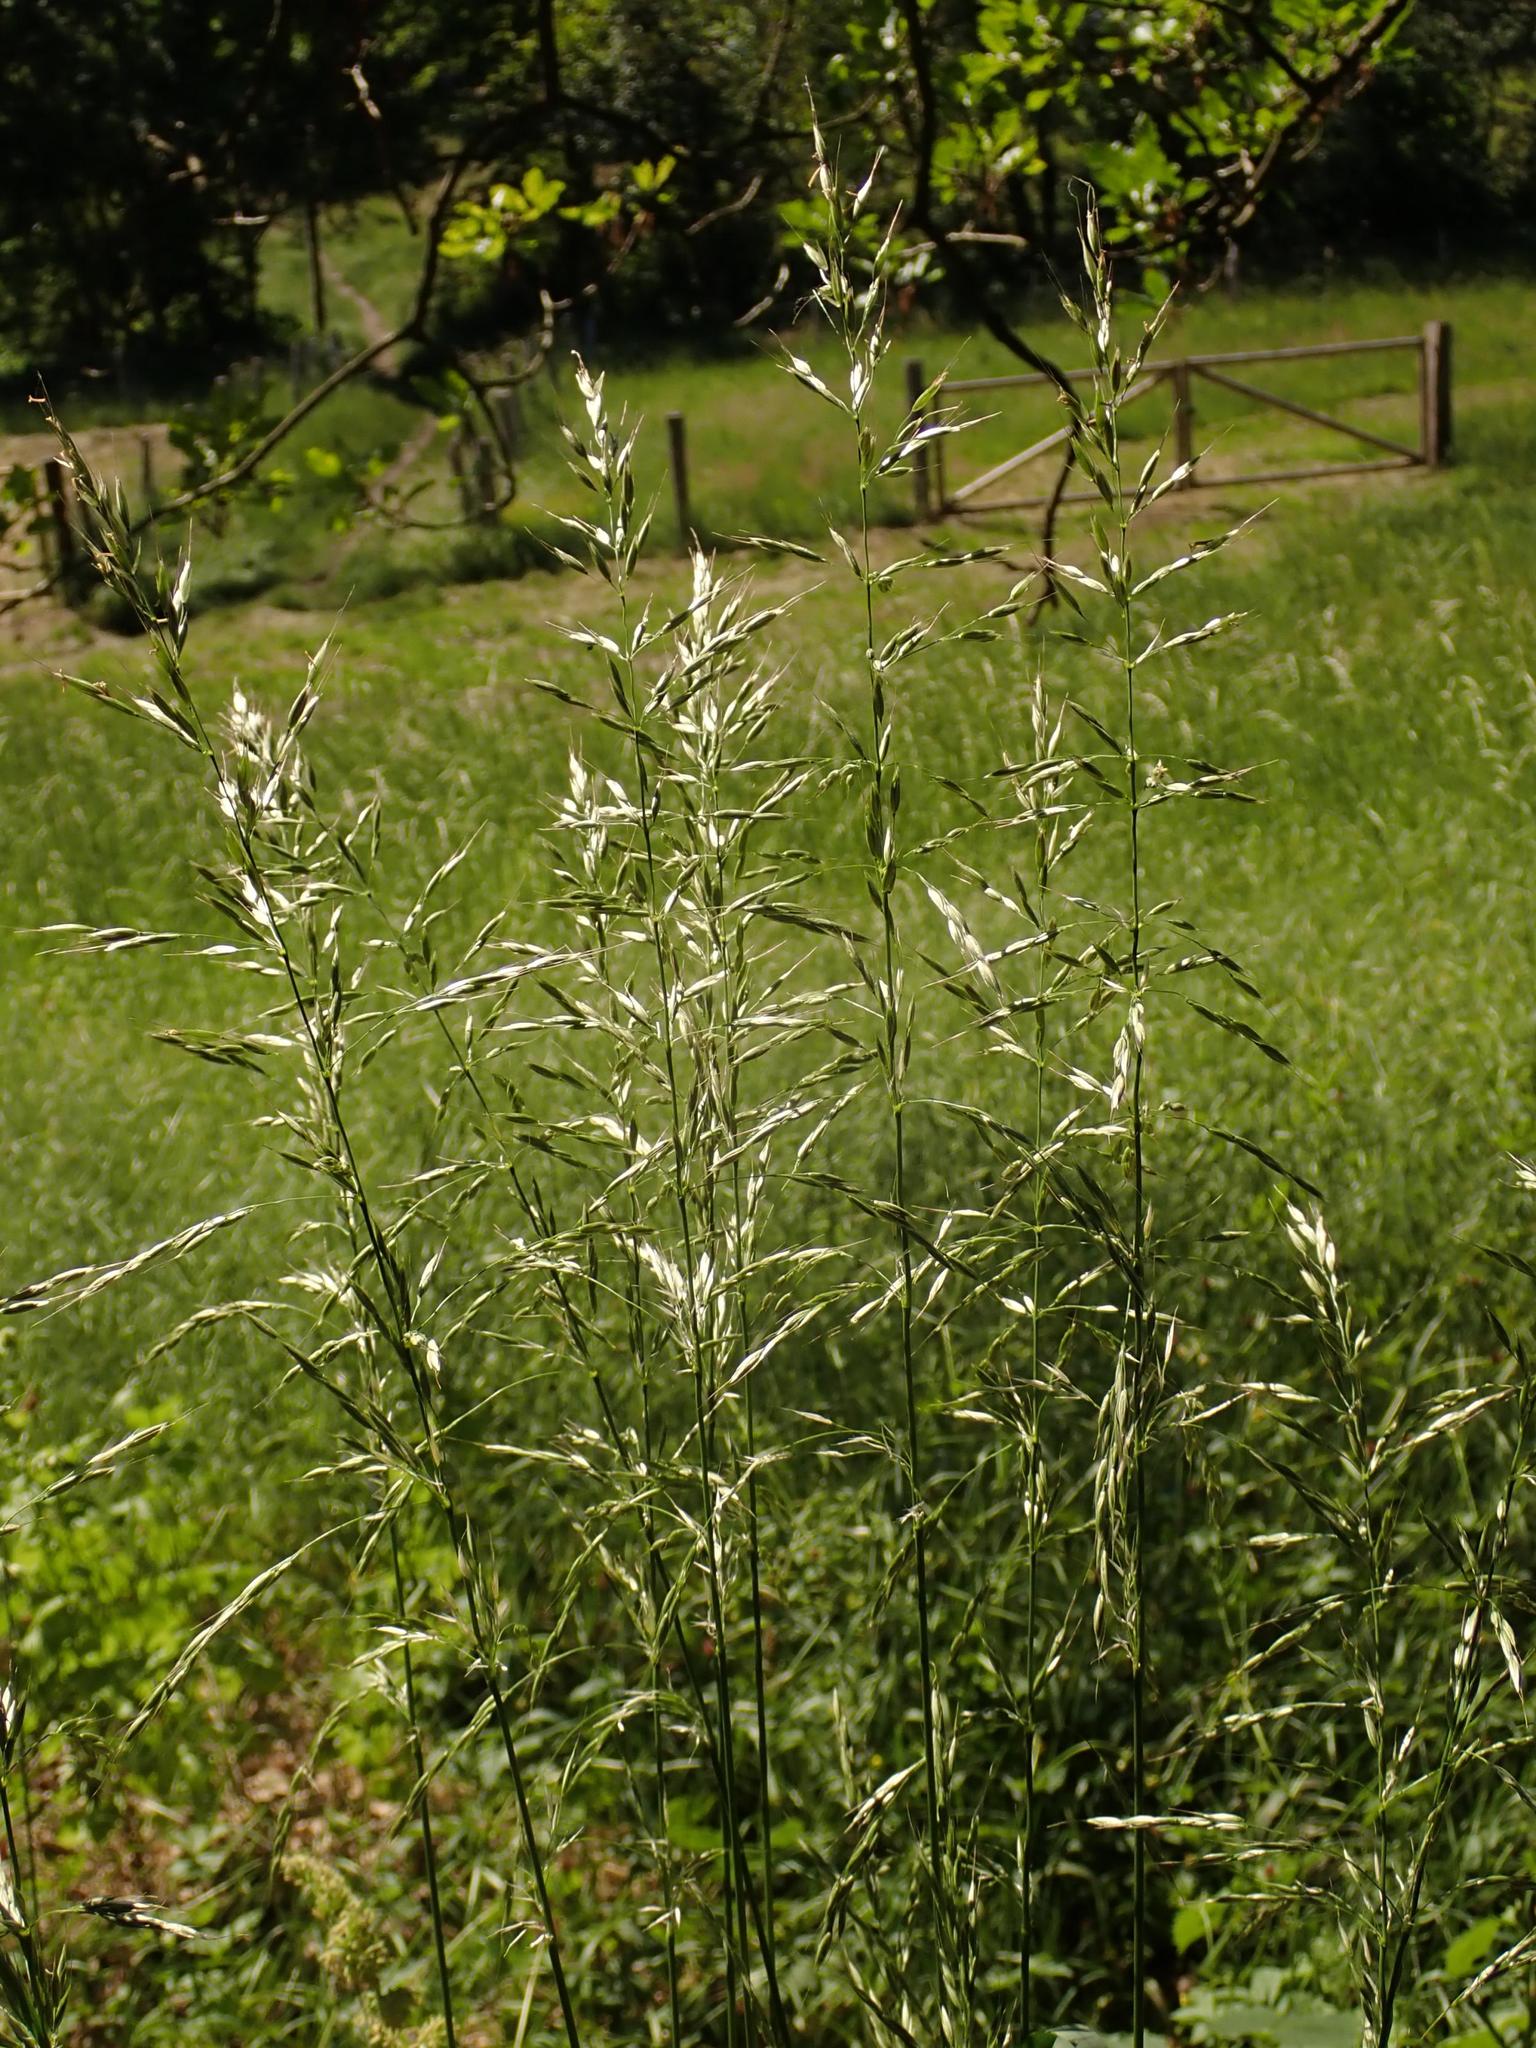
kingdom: Plantae
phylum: Tracheophyta
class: Liliopsida
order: Poales
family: Poaceae
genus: Arrhenatherum
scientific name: Arrhenatherum elatius
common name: Tall oatgrass
